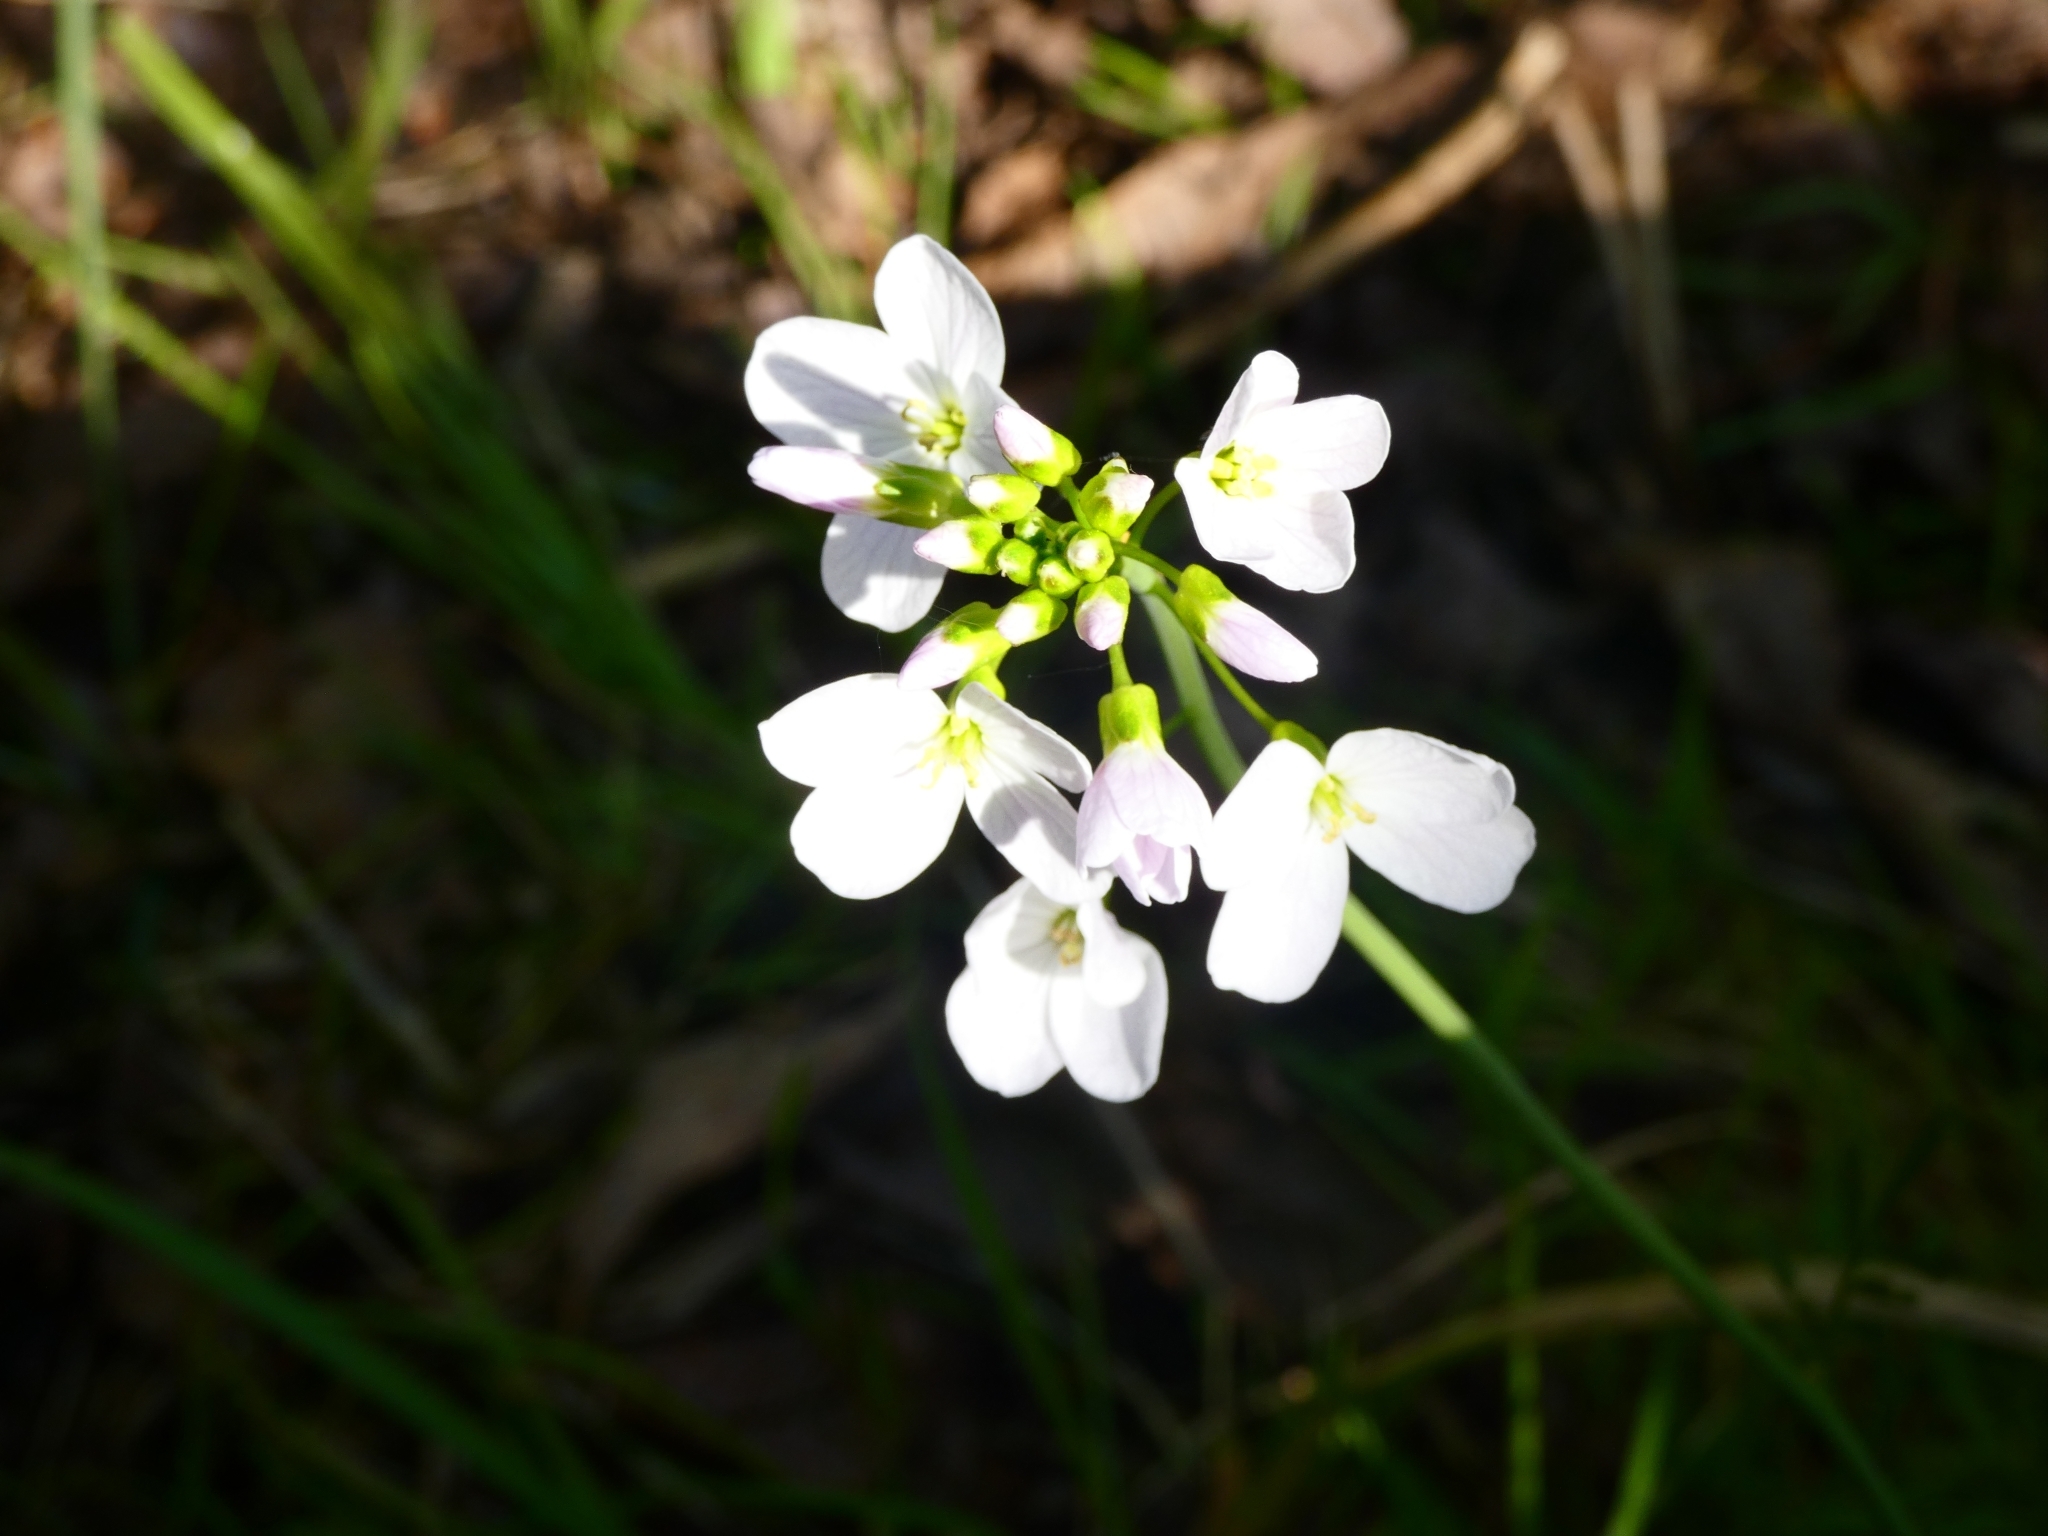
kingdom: Plantae
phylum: Tracheophyta
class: Magnoliopsida
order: Brassicales
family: Brassicaceae
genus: Cardamine
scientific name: Cardamine pratensis
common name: Cuckoo flower
